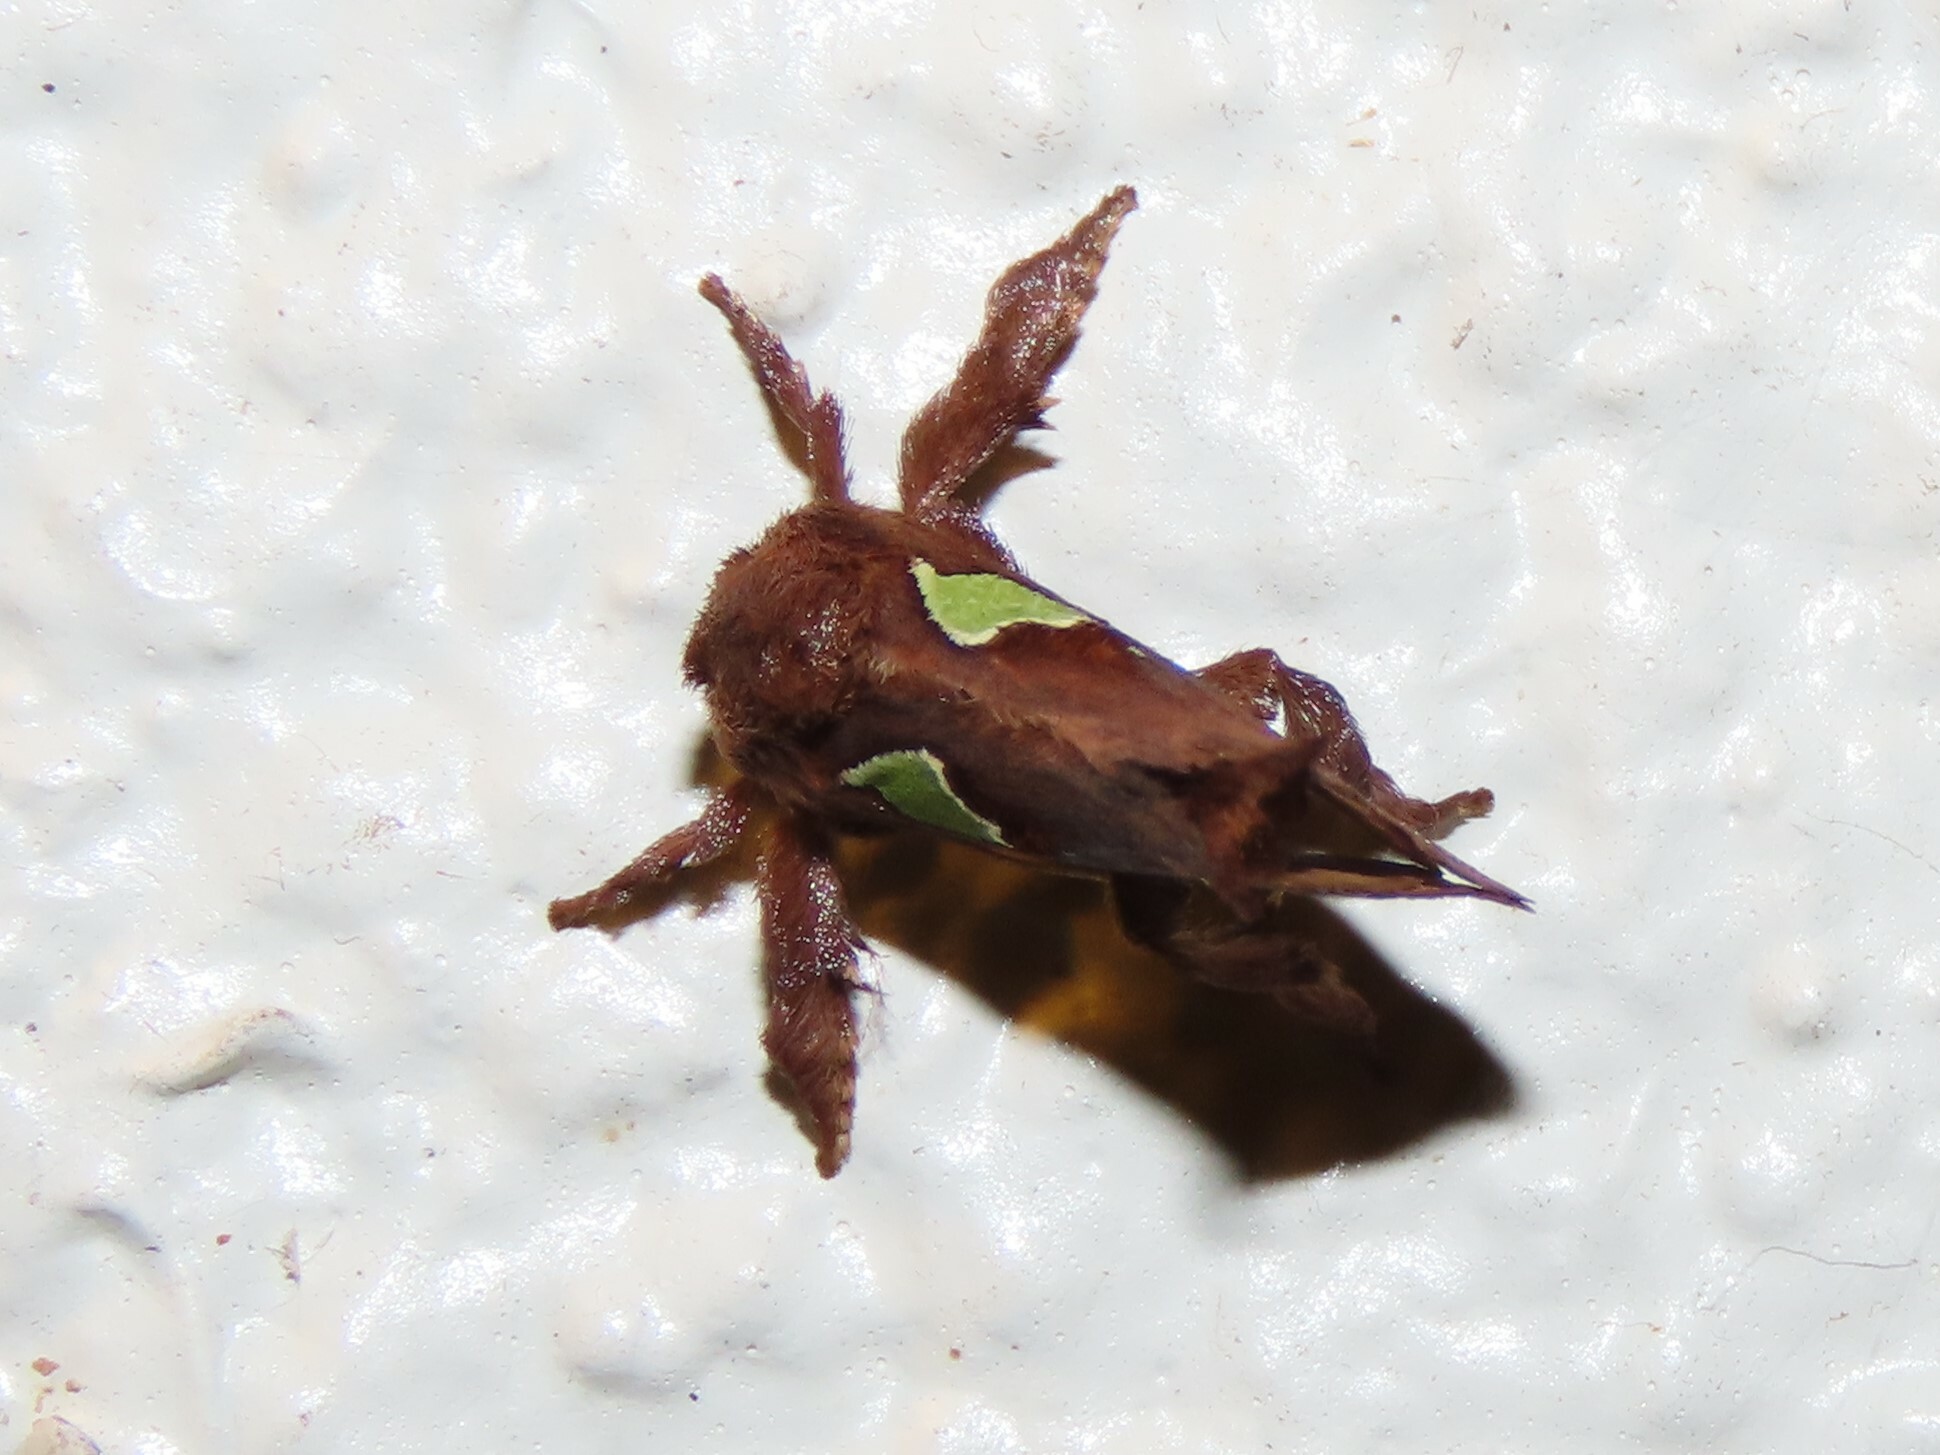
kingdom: Animalia
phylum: Arthropoda
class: Insecta
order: Lepidoptera
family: Limacodidae
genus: Euclea
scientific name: Euclea delphinii
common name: Spiny oak-slug moth
